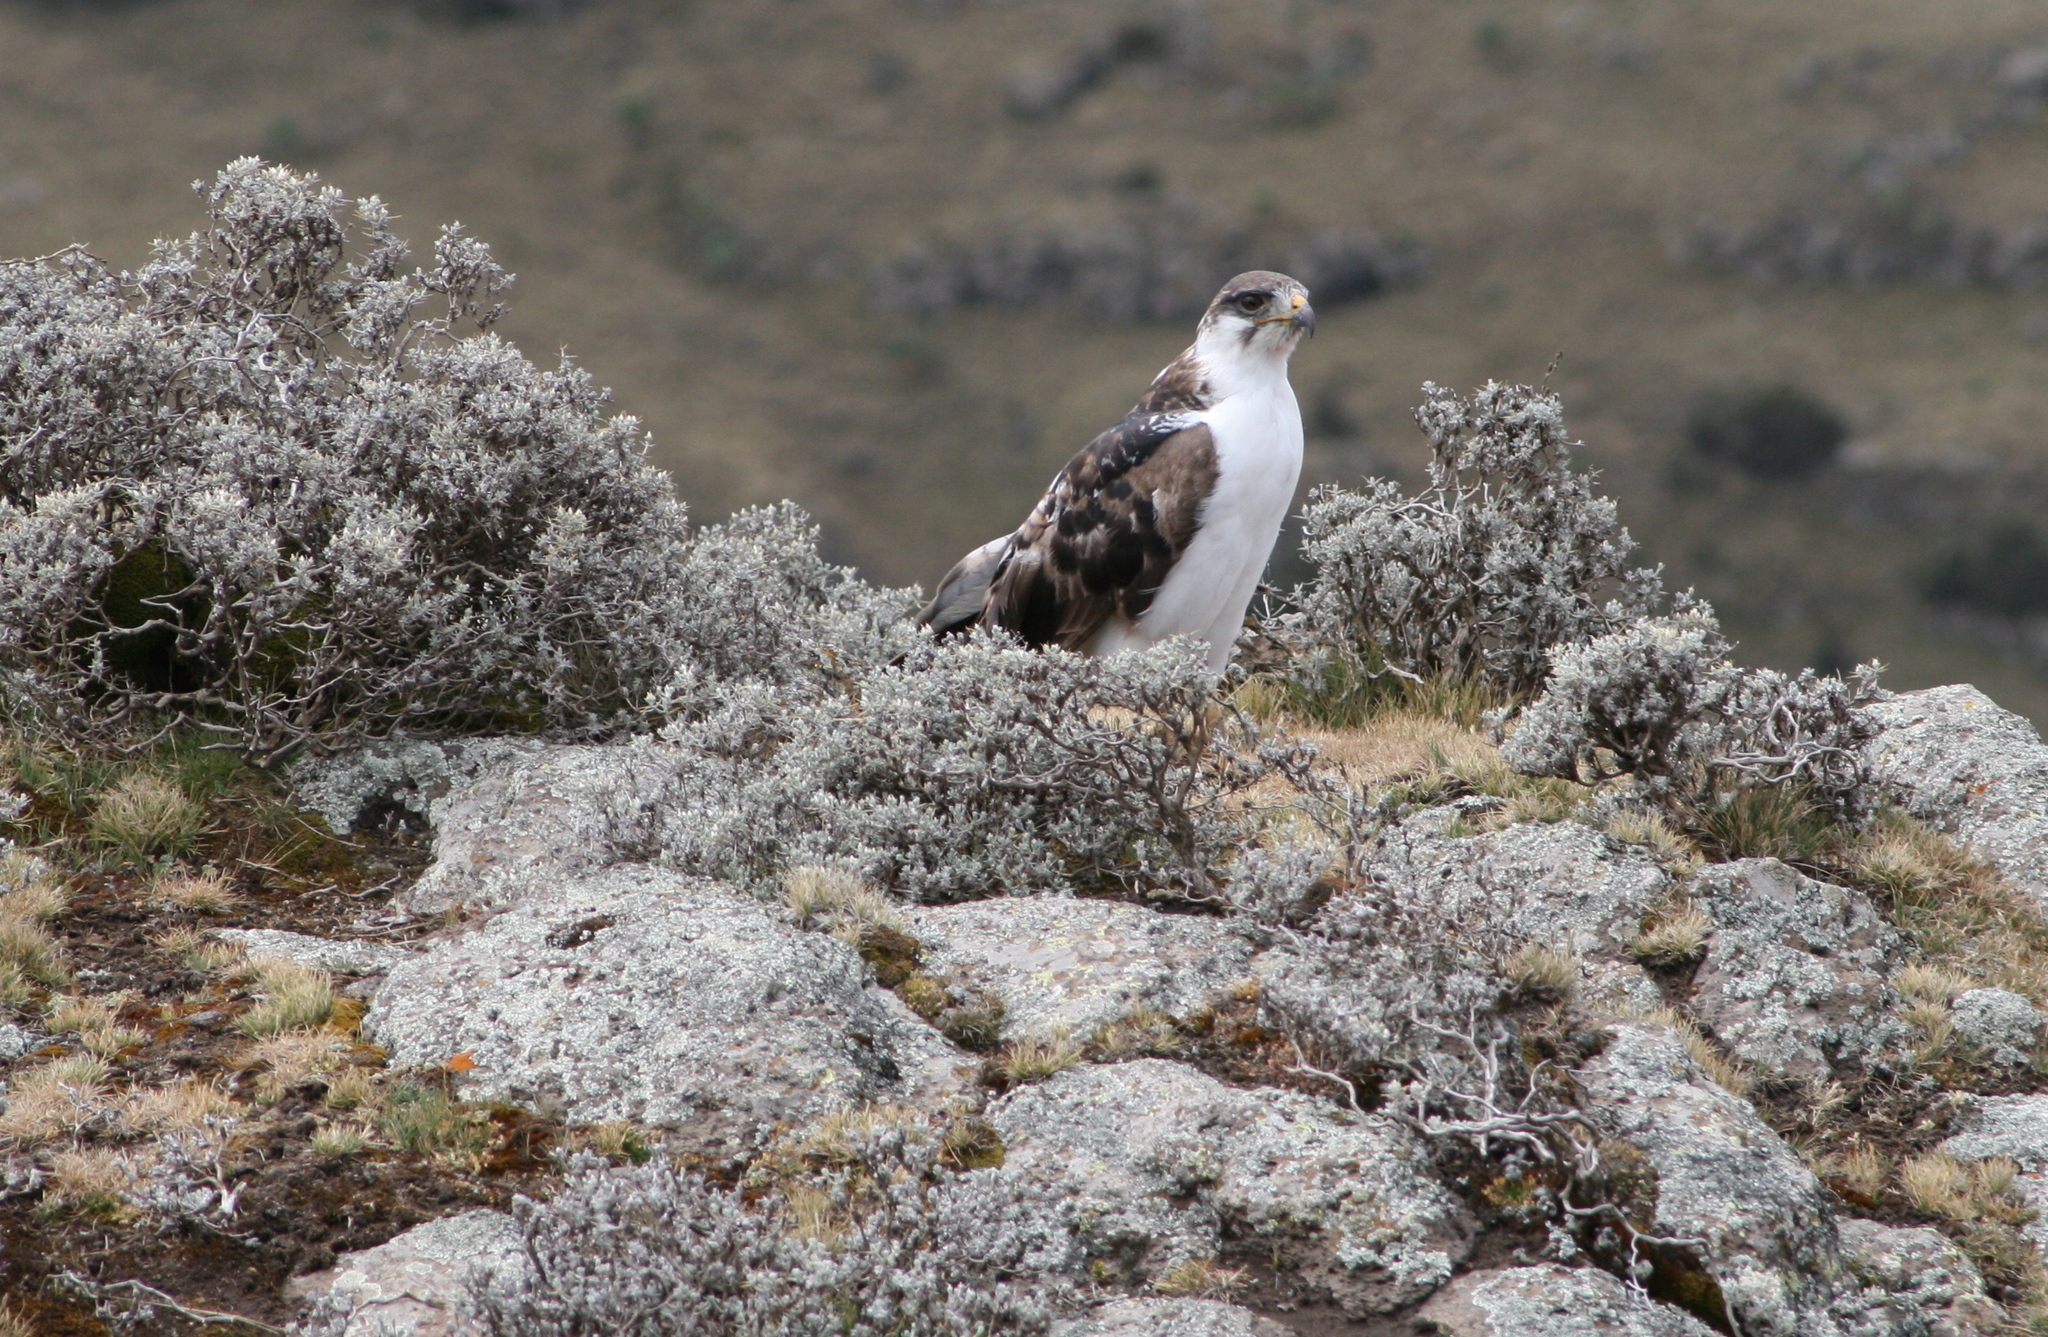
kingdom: Animalia
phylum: Chordata
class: Aves
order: Accipitriformes
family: Accipitridae
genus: Buteo
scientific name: Buteo augur
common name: Augur buzzard
